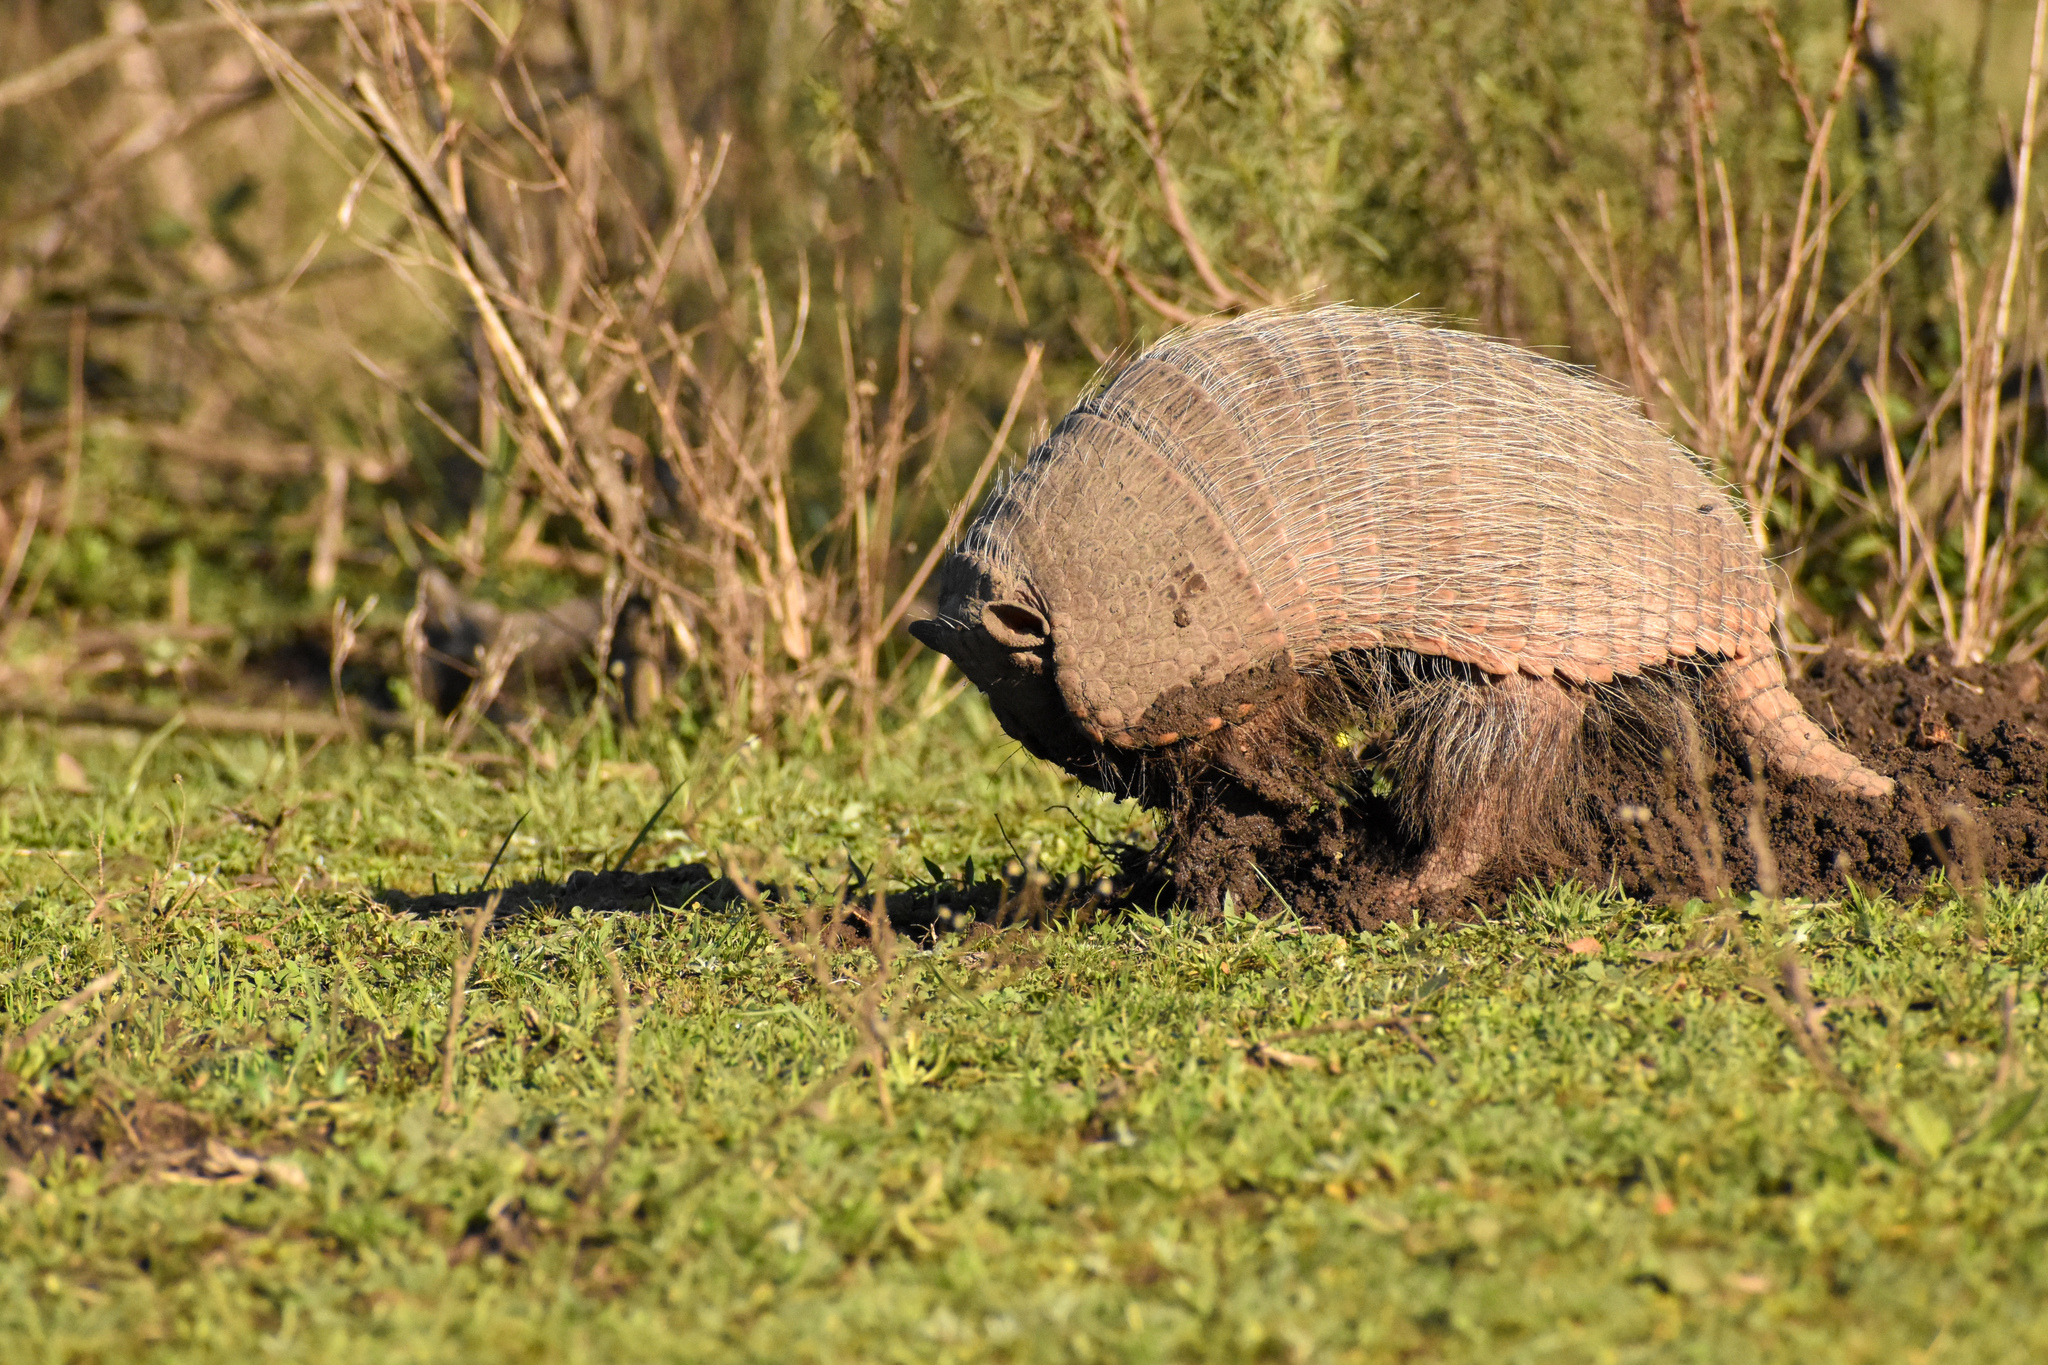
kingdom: Animalia
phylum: Chordata
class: Mammalia
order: Cingulata
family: Dasypodidae
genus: Euphractus
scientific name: Euphractus sexcinctus
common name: Six-banded armadillo
